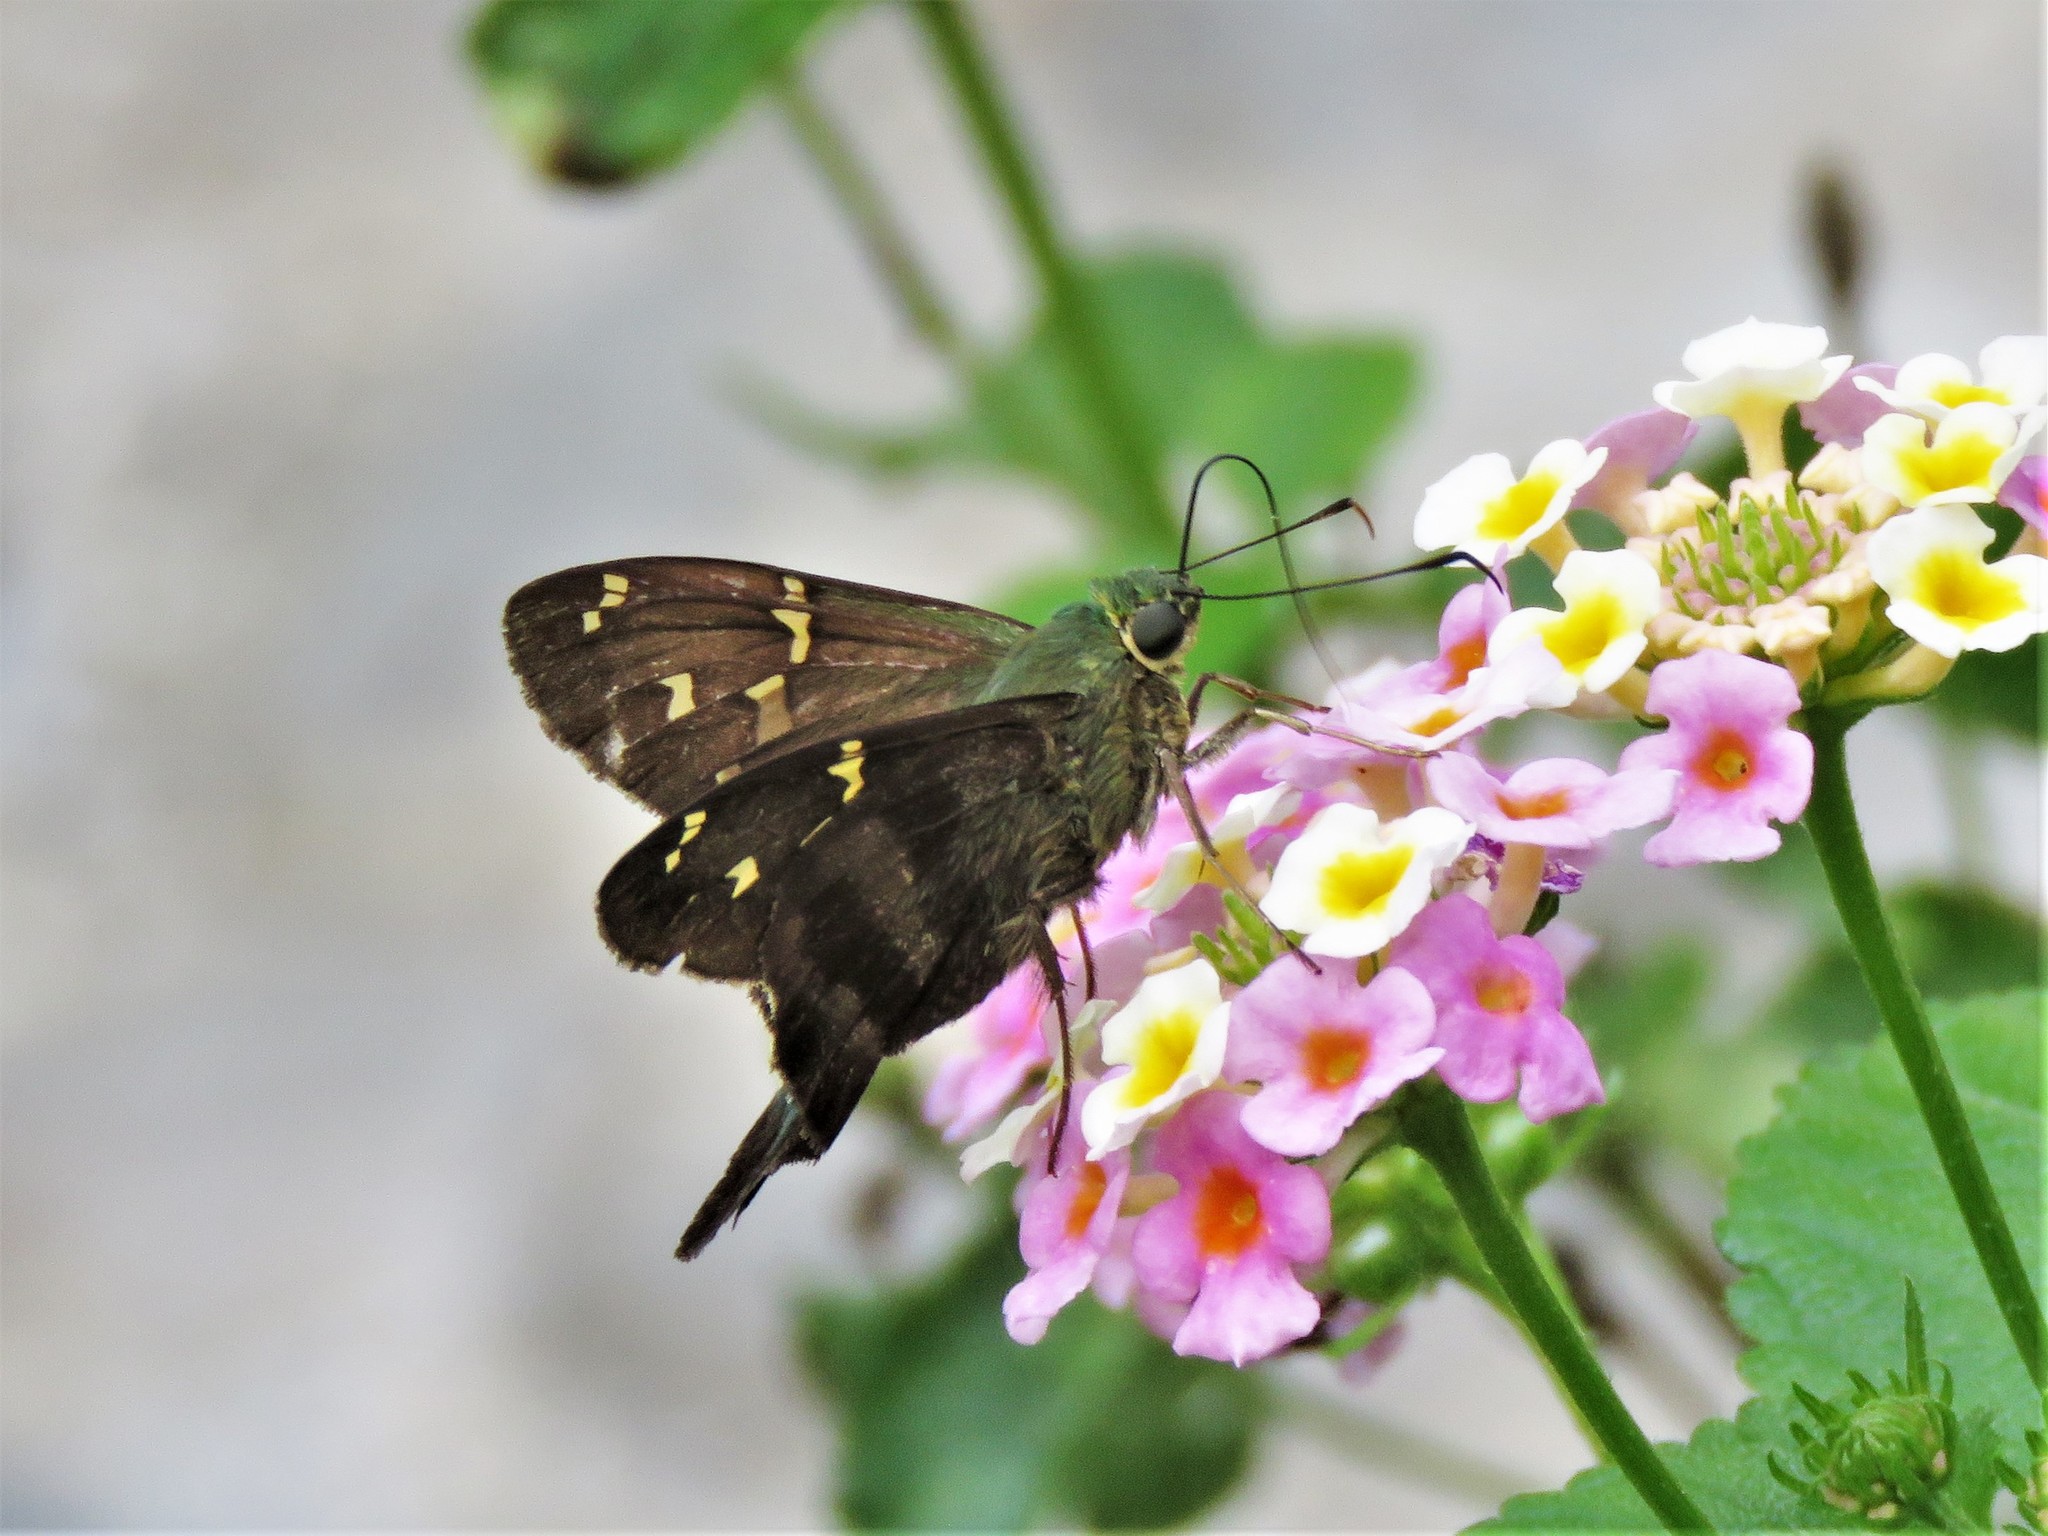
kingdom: Animalia
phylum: Arthropoda
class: Insecta
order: Lepidoptera
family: Hesperiidae
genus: Urbanus
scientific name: Urbanus proteus
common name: Long-tailed skipper
